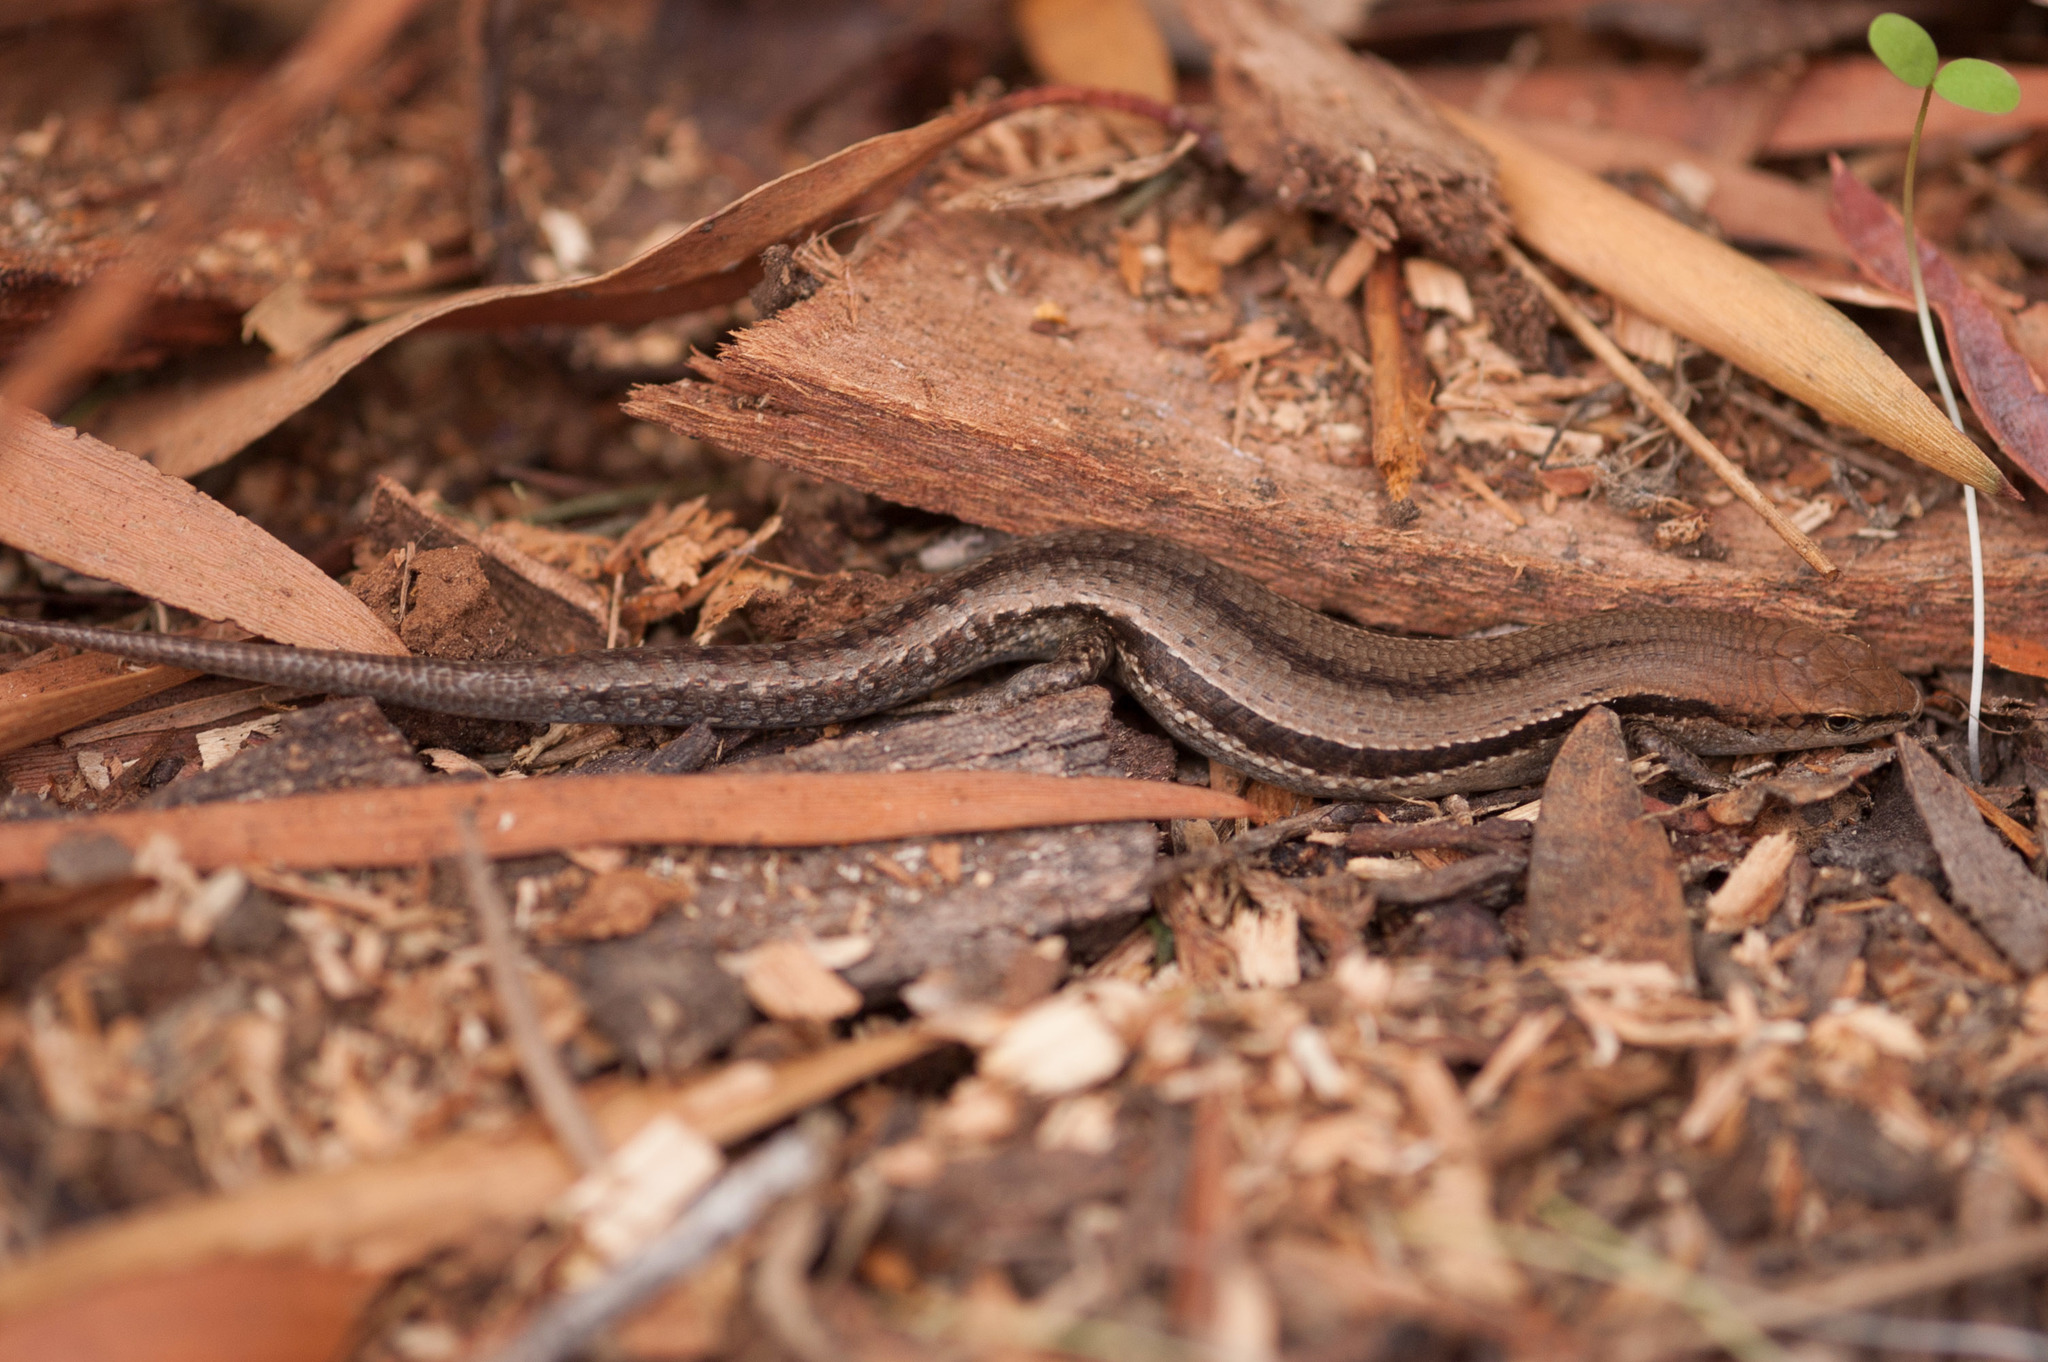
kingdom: Animalia
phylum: Chordata
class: Squamata
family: Scincidae
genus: Lampropholis
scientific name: Lampropholis guichenoti
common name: Garden skink
